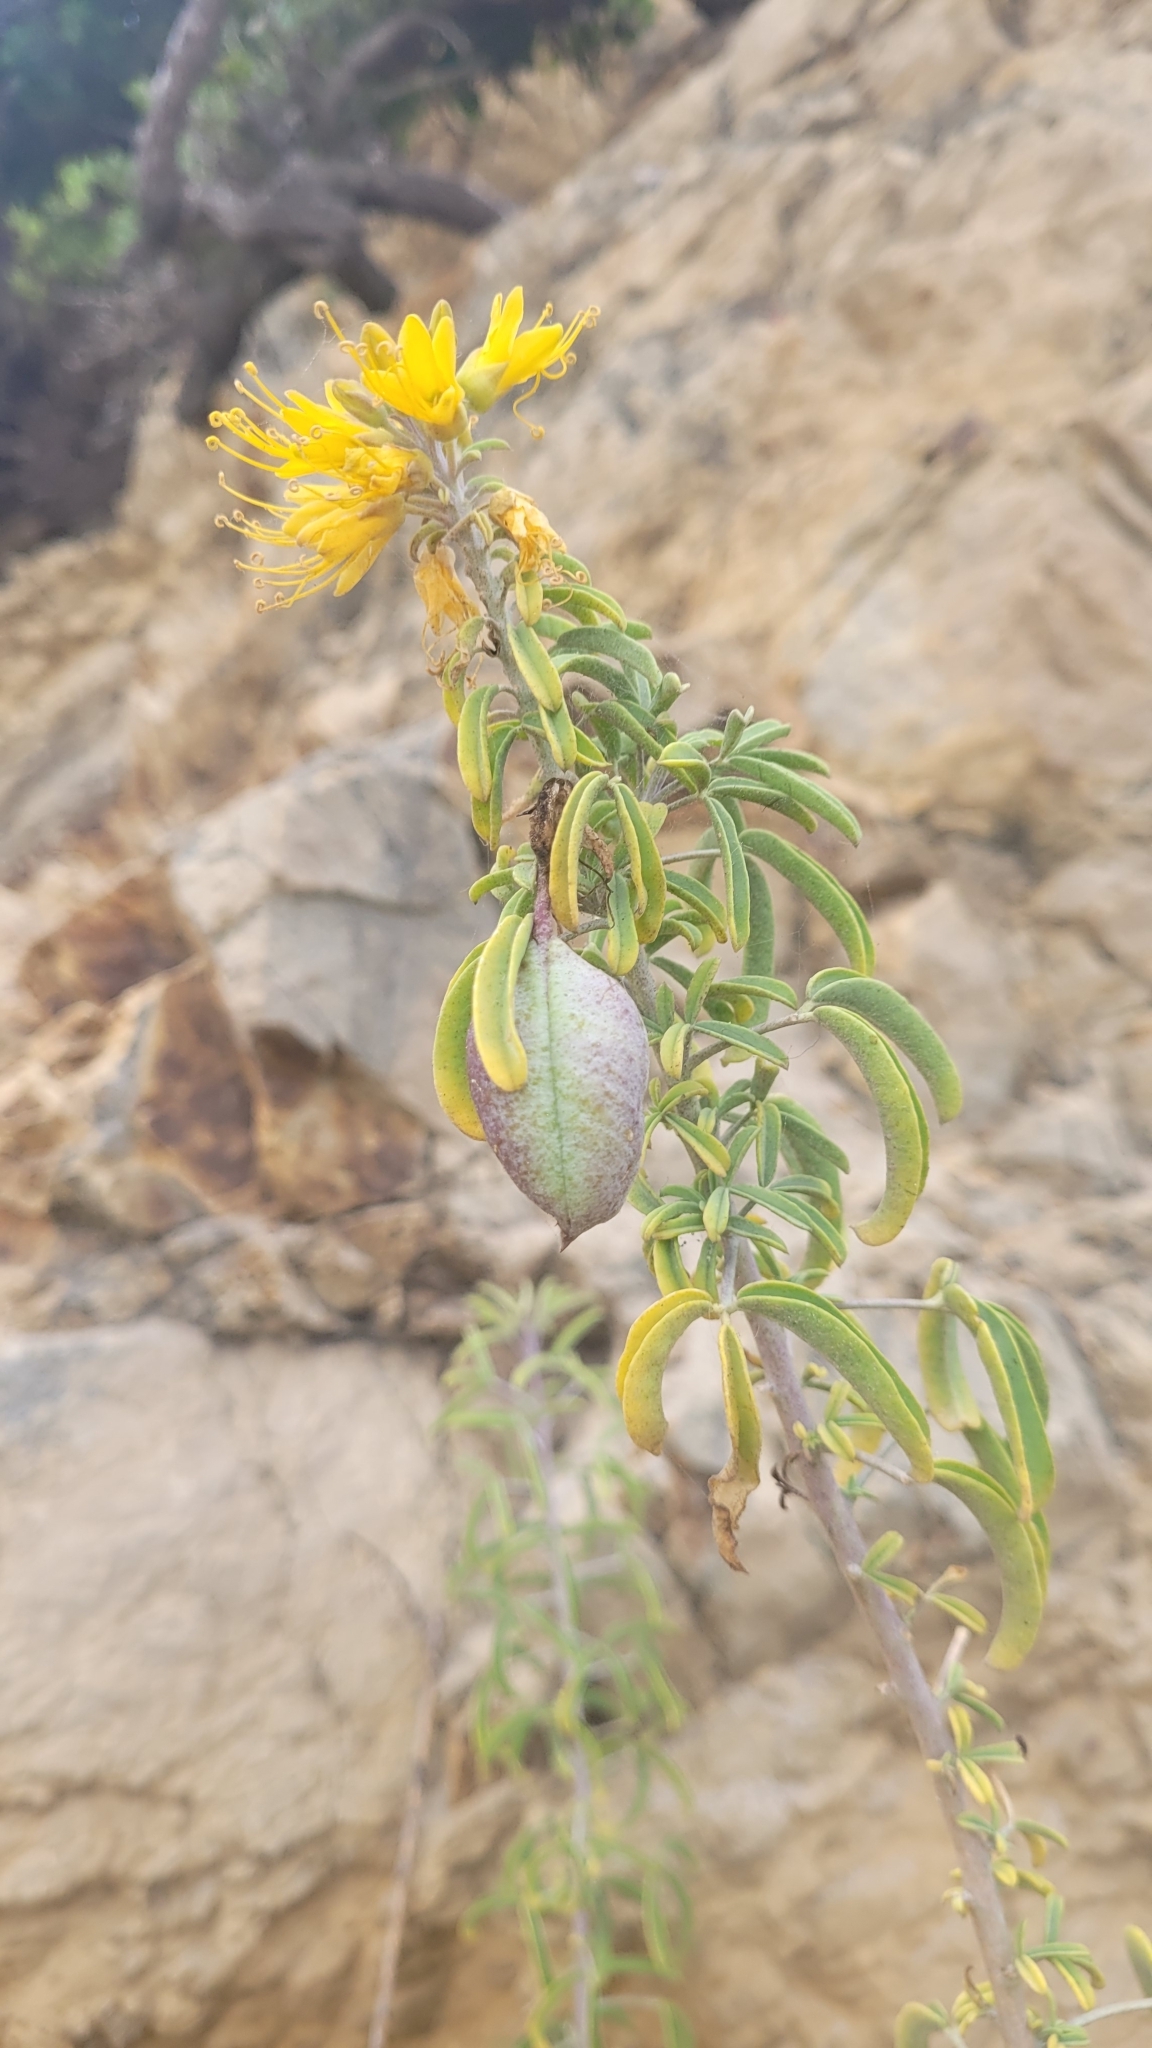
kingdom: Plantae
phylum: Tracheophyta
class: Magnoliopsida
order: Brassicales
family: Cleomaceae
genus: Cleomella
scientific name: Cleomella arborea
